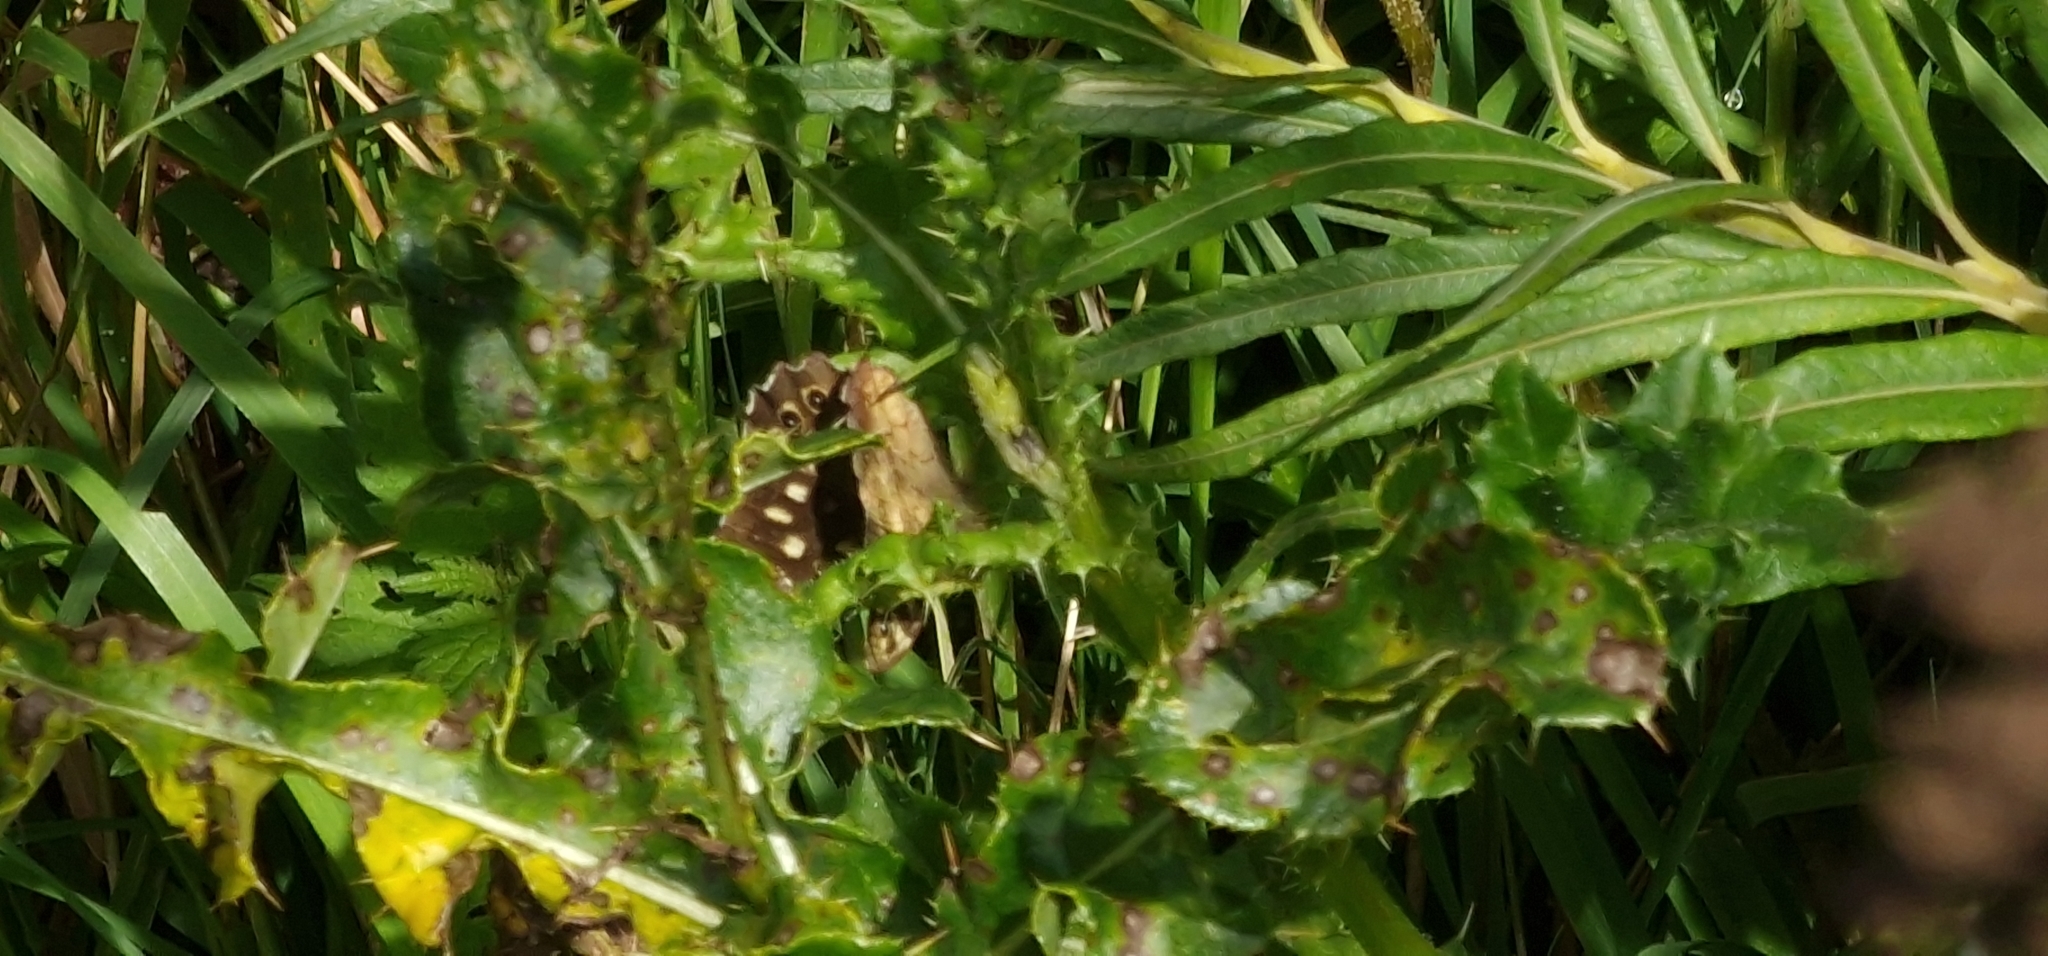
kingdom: Animalia
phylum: Arthropoda
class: Insecta
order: Lepidoptera
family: Nymphalidae
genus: Pararge
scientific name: Pararge aegeria
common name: Speckled wood
